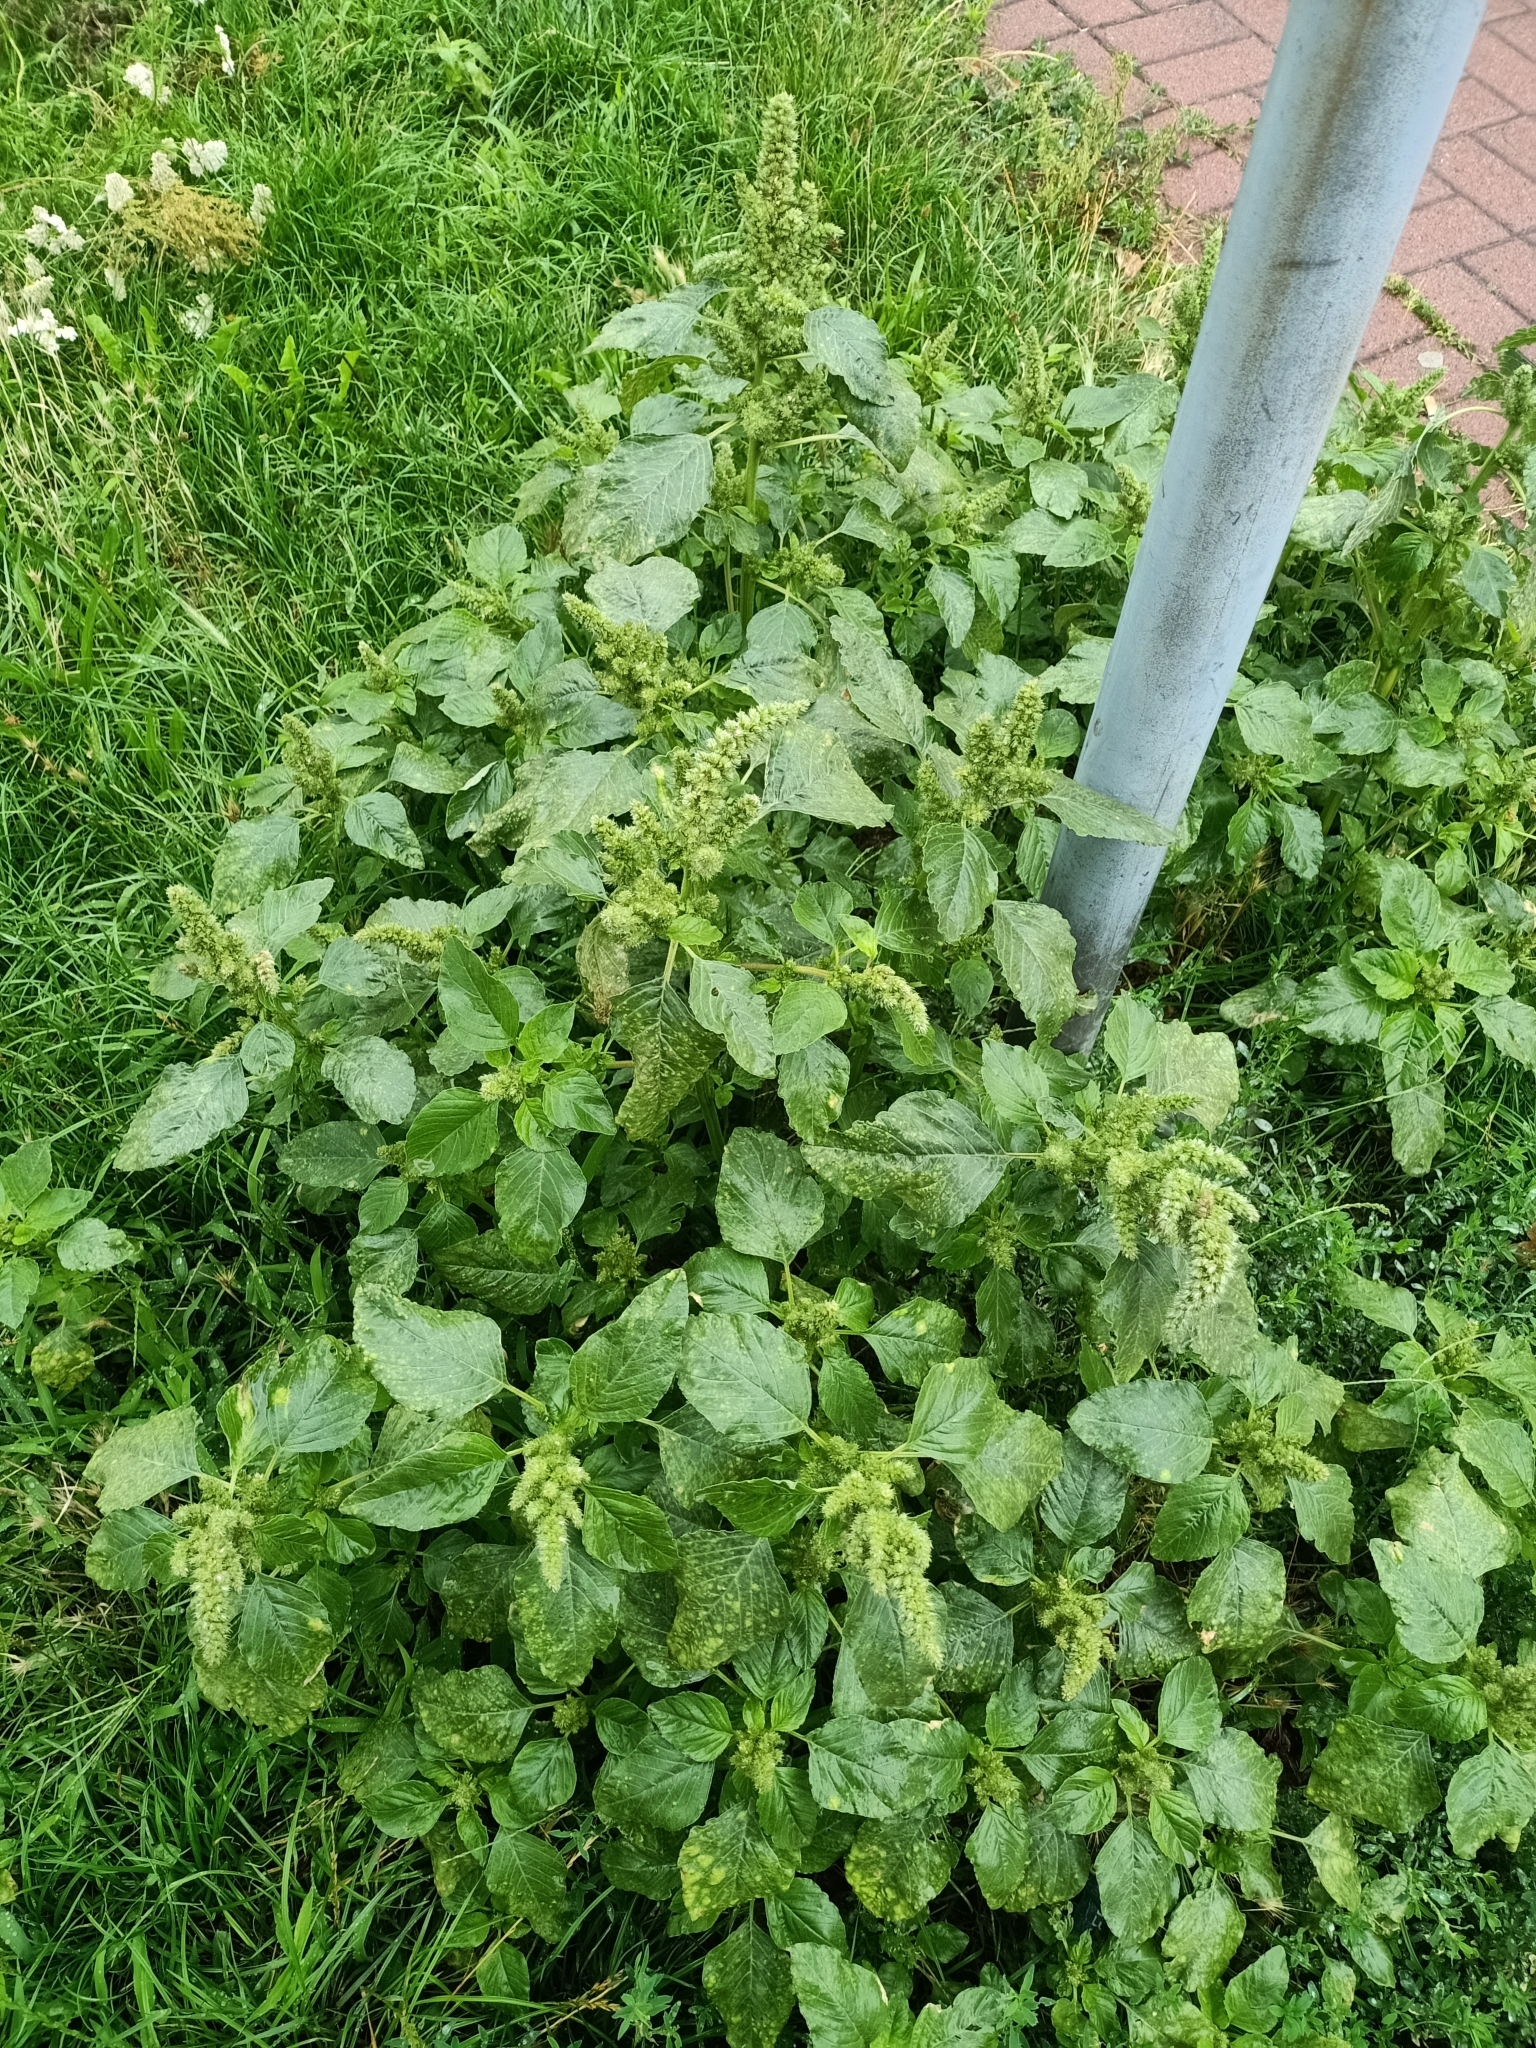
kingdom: Plantae
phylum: Tracheophyta
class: Magnoliopsida
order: Caryophyllales
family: Amaranthaceae
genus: Amaranthus
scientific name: Amaranthus retroflexus
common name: Redroot amaranth
